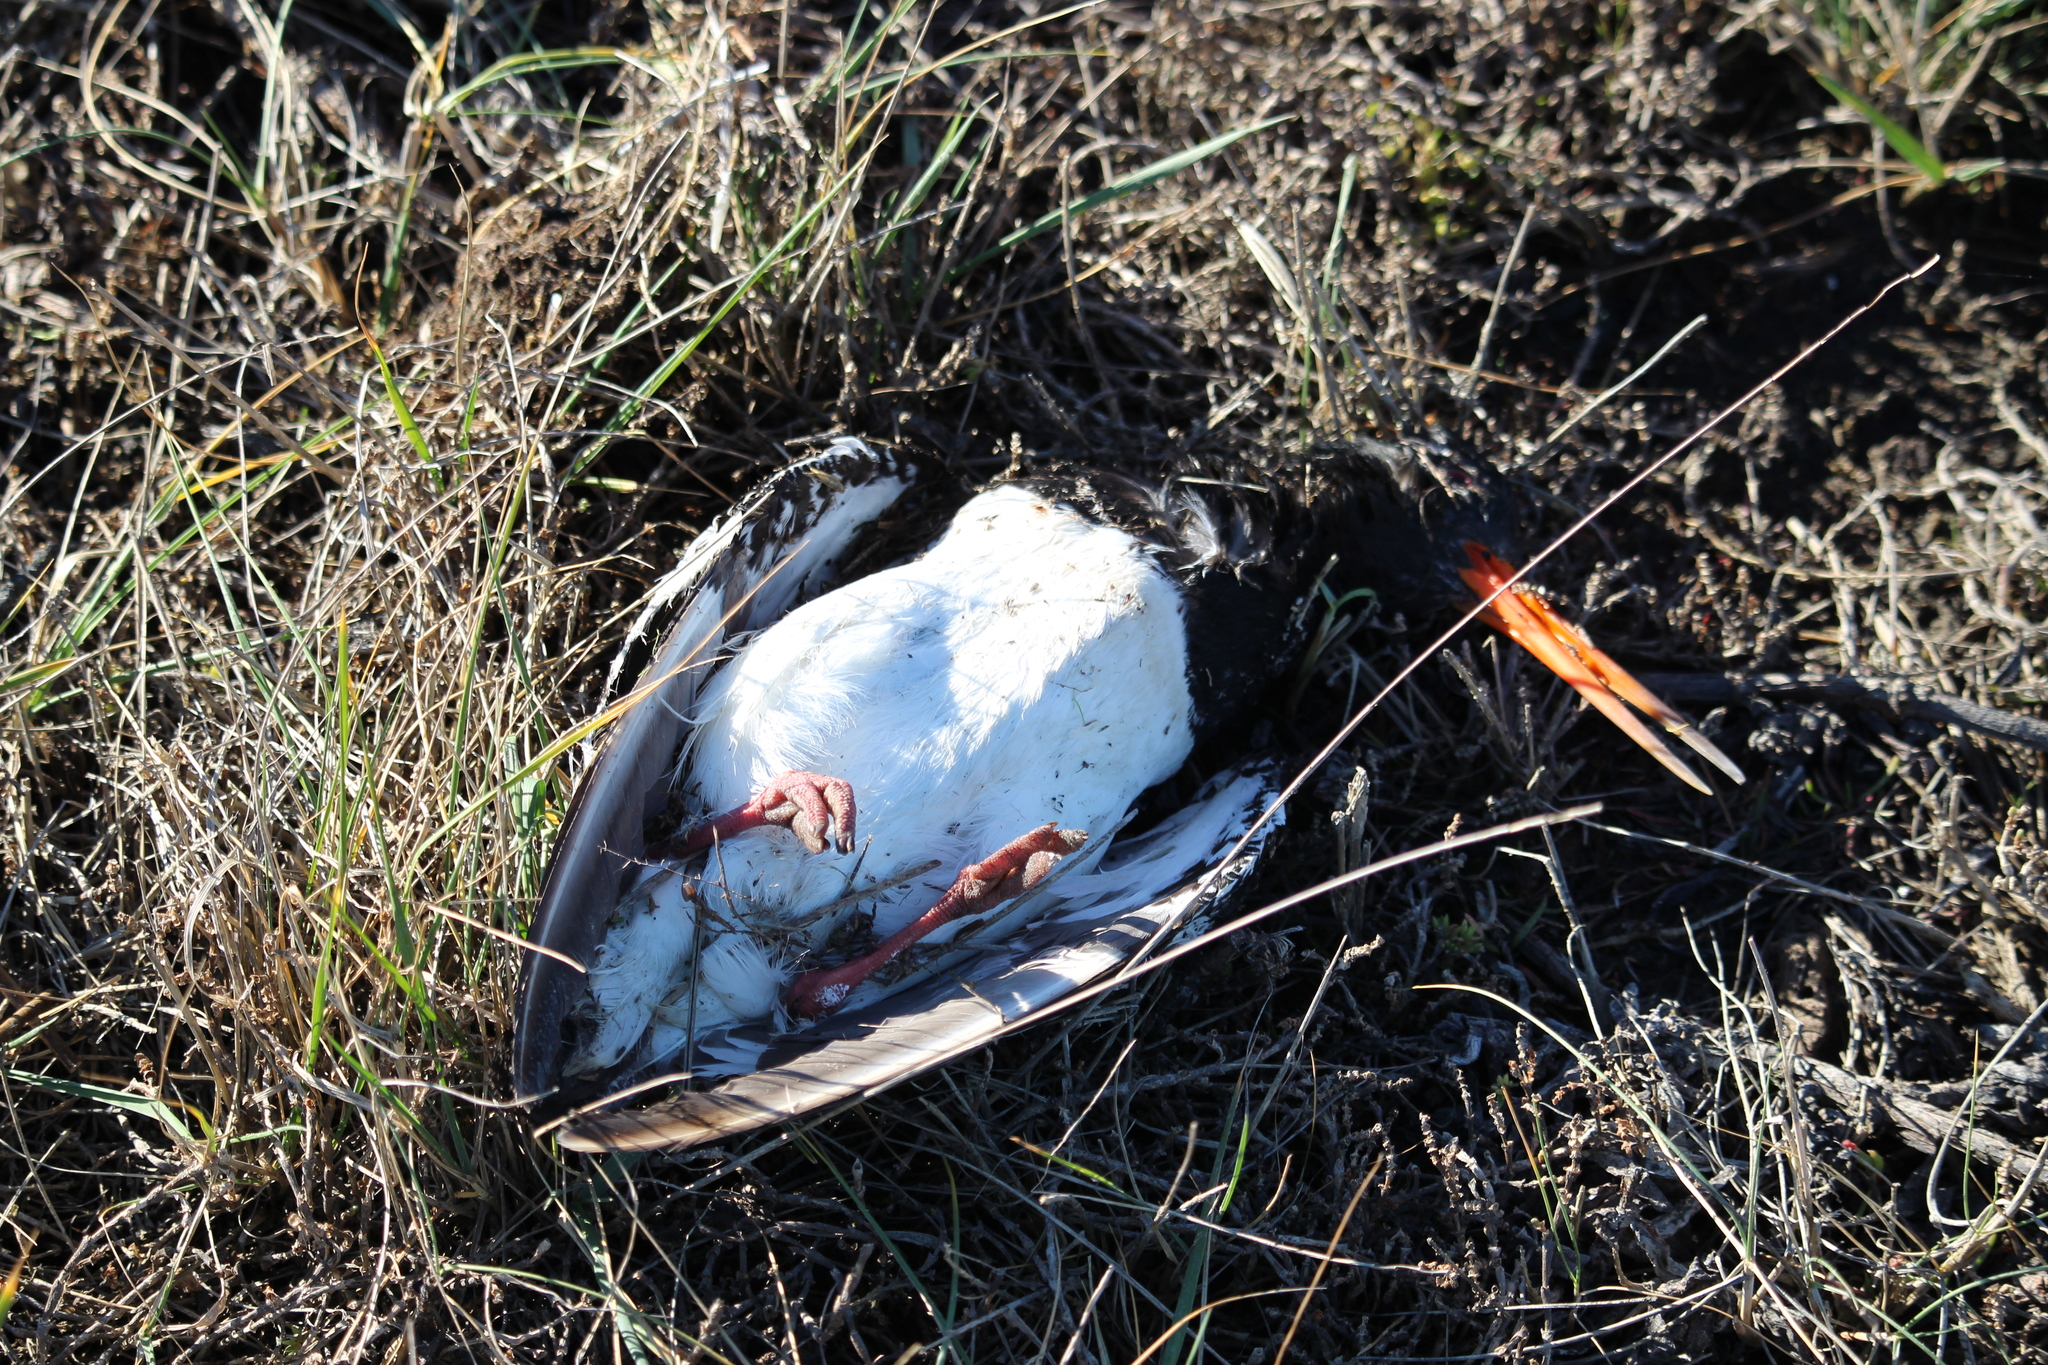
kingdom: Animalia
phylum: Chordata
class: Aves
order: Charadriiformes
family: Haematopodidae
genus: Haematopus
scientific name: Haematopus finschi
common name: South island oystercatcher
